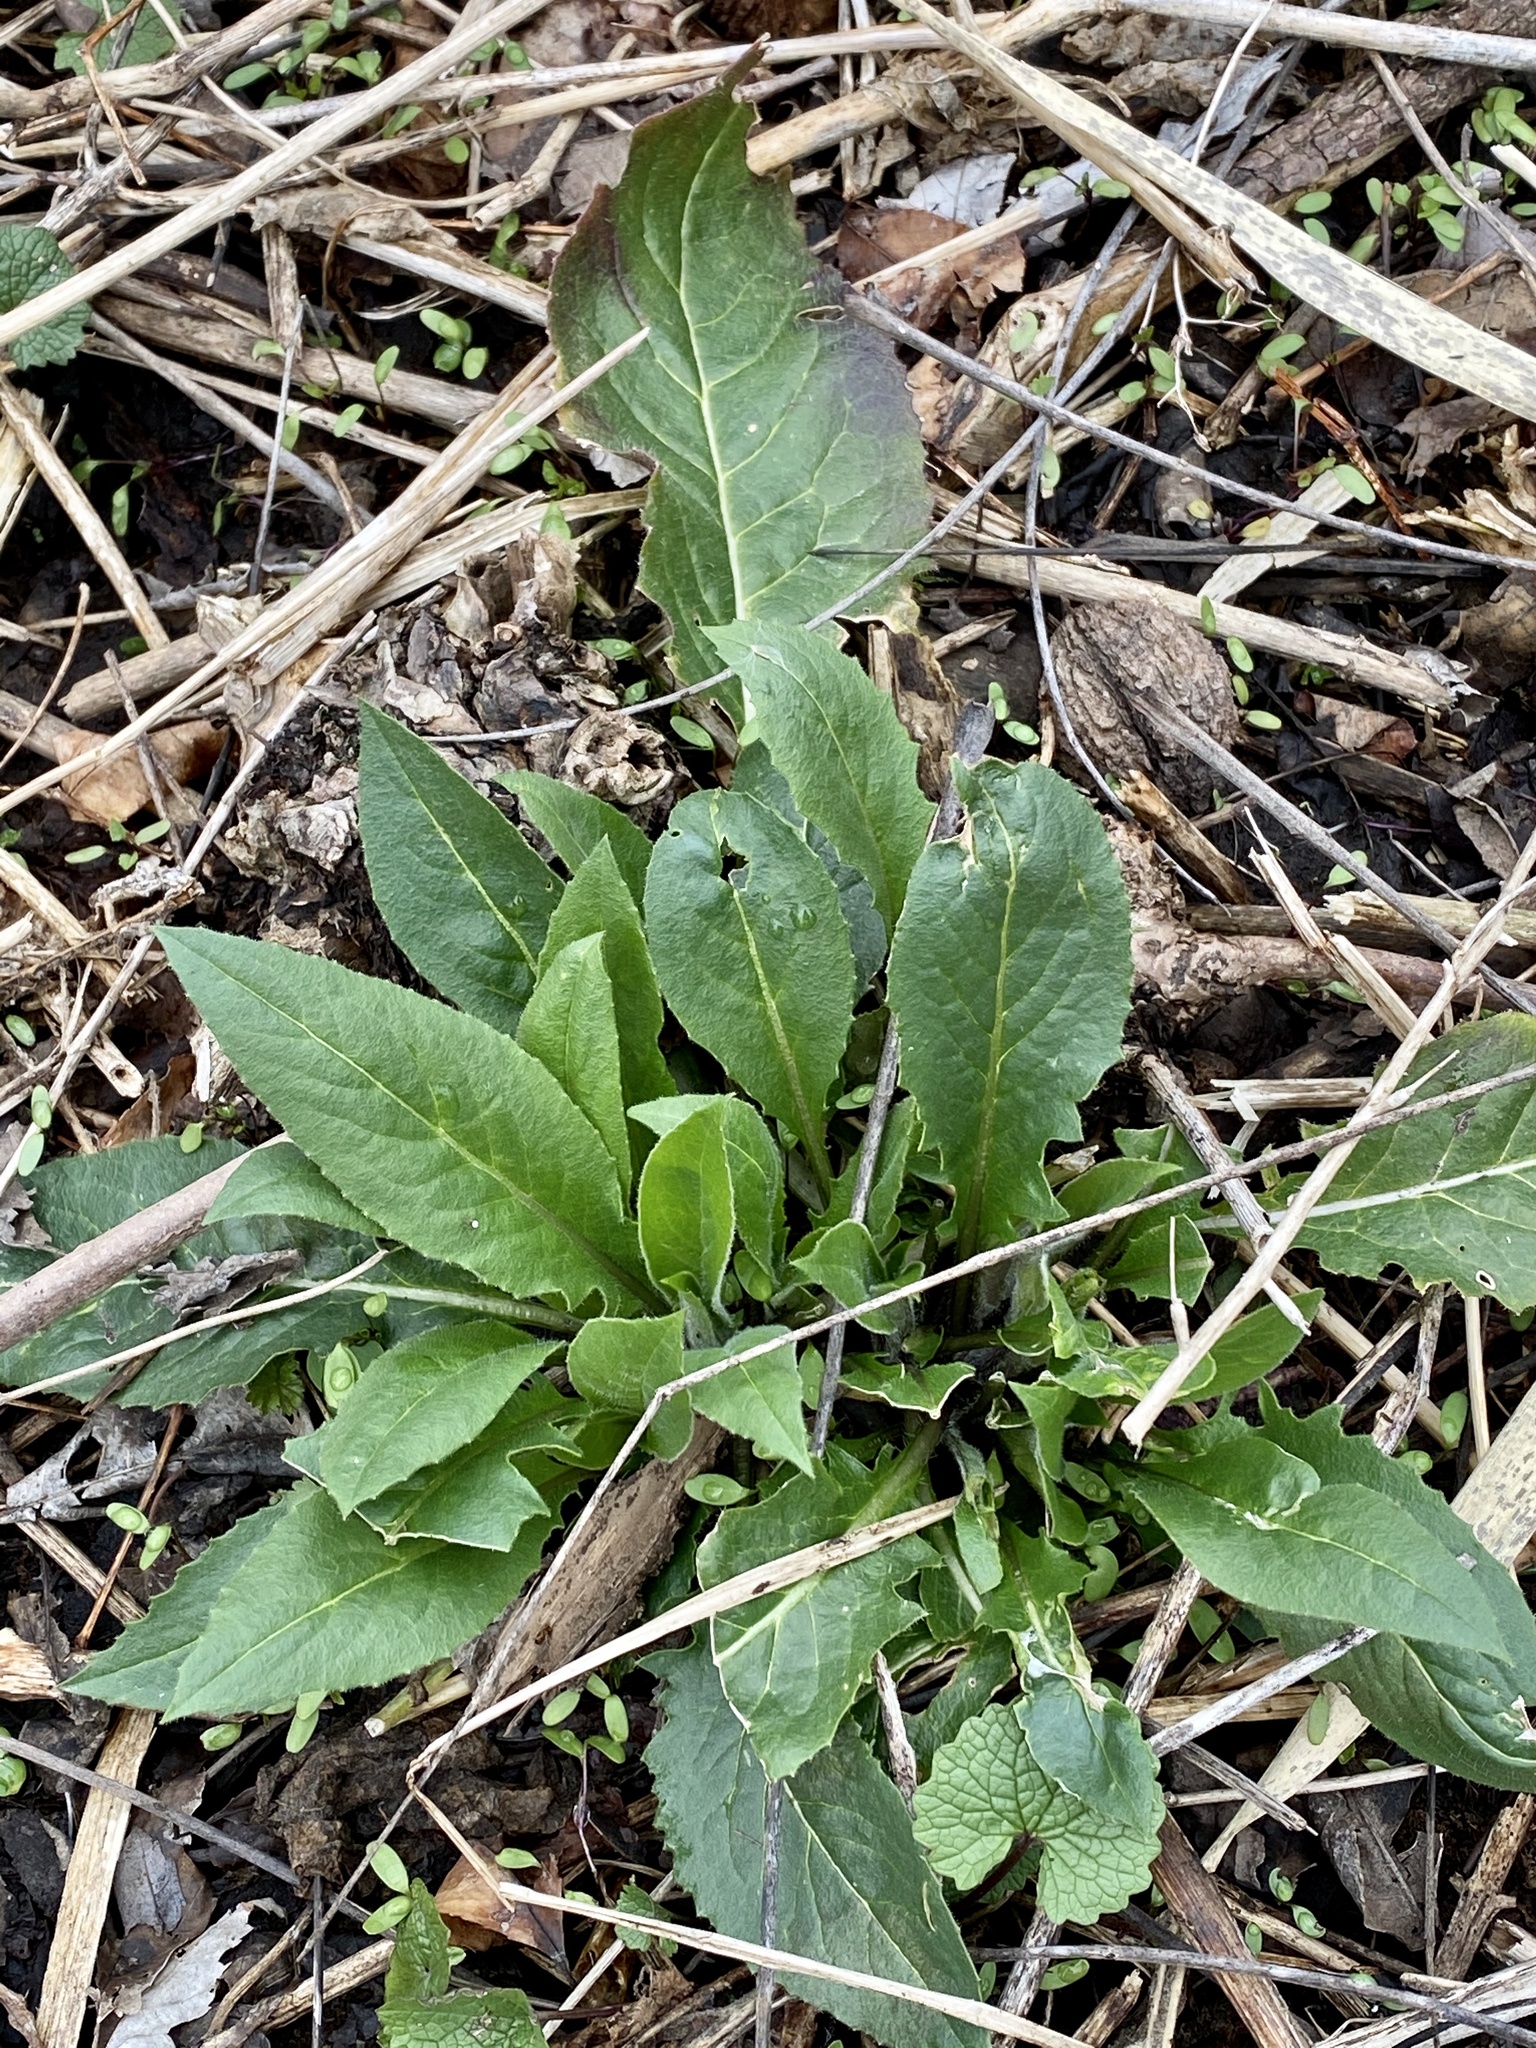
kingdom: Plantae
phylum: Tracheophyta
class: Magnoliopsida
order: Brassicales
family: Brassicaceae
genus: Hesperis
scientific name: Hesperis matronalis
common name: Dame's-violet
